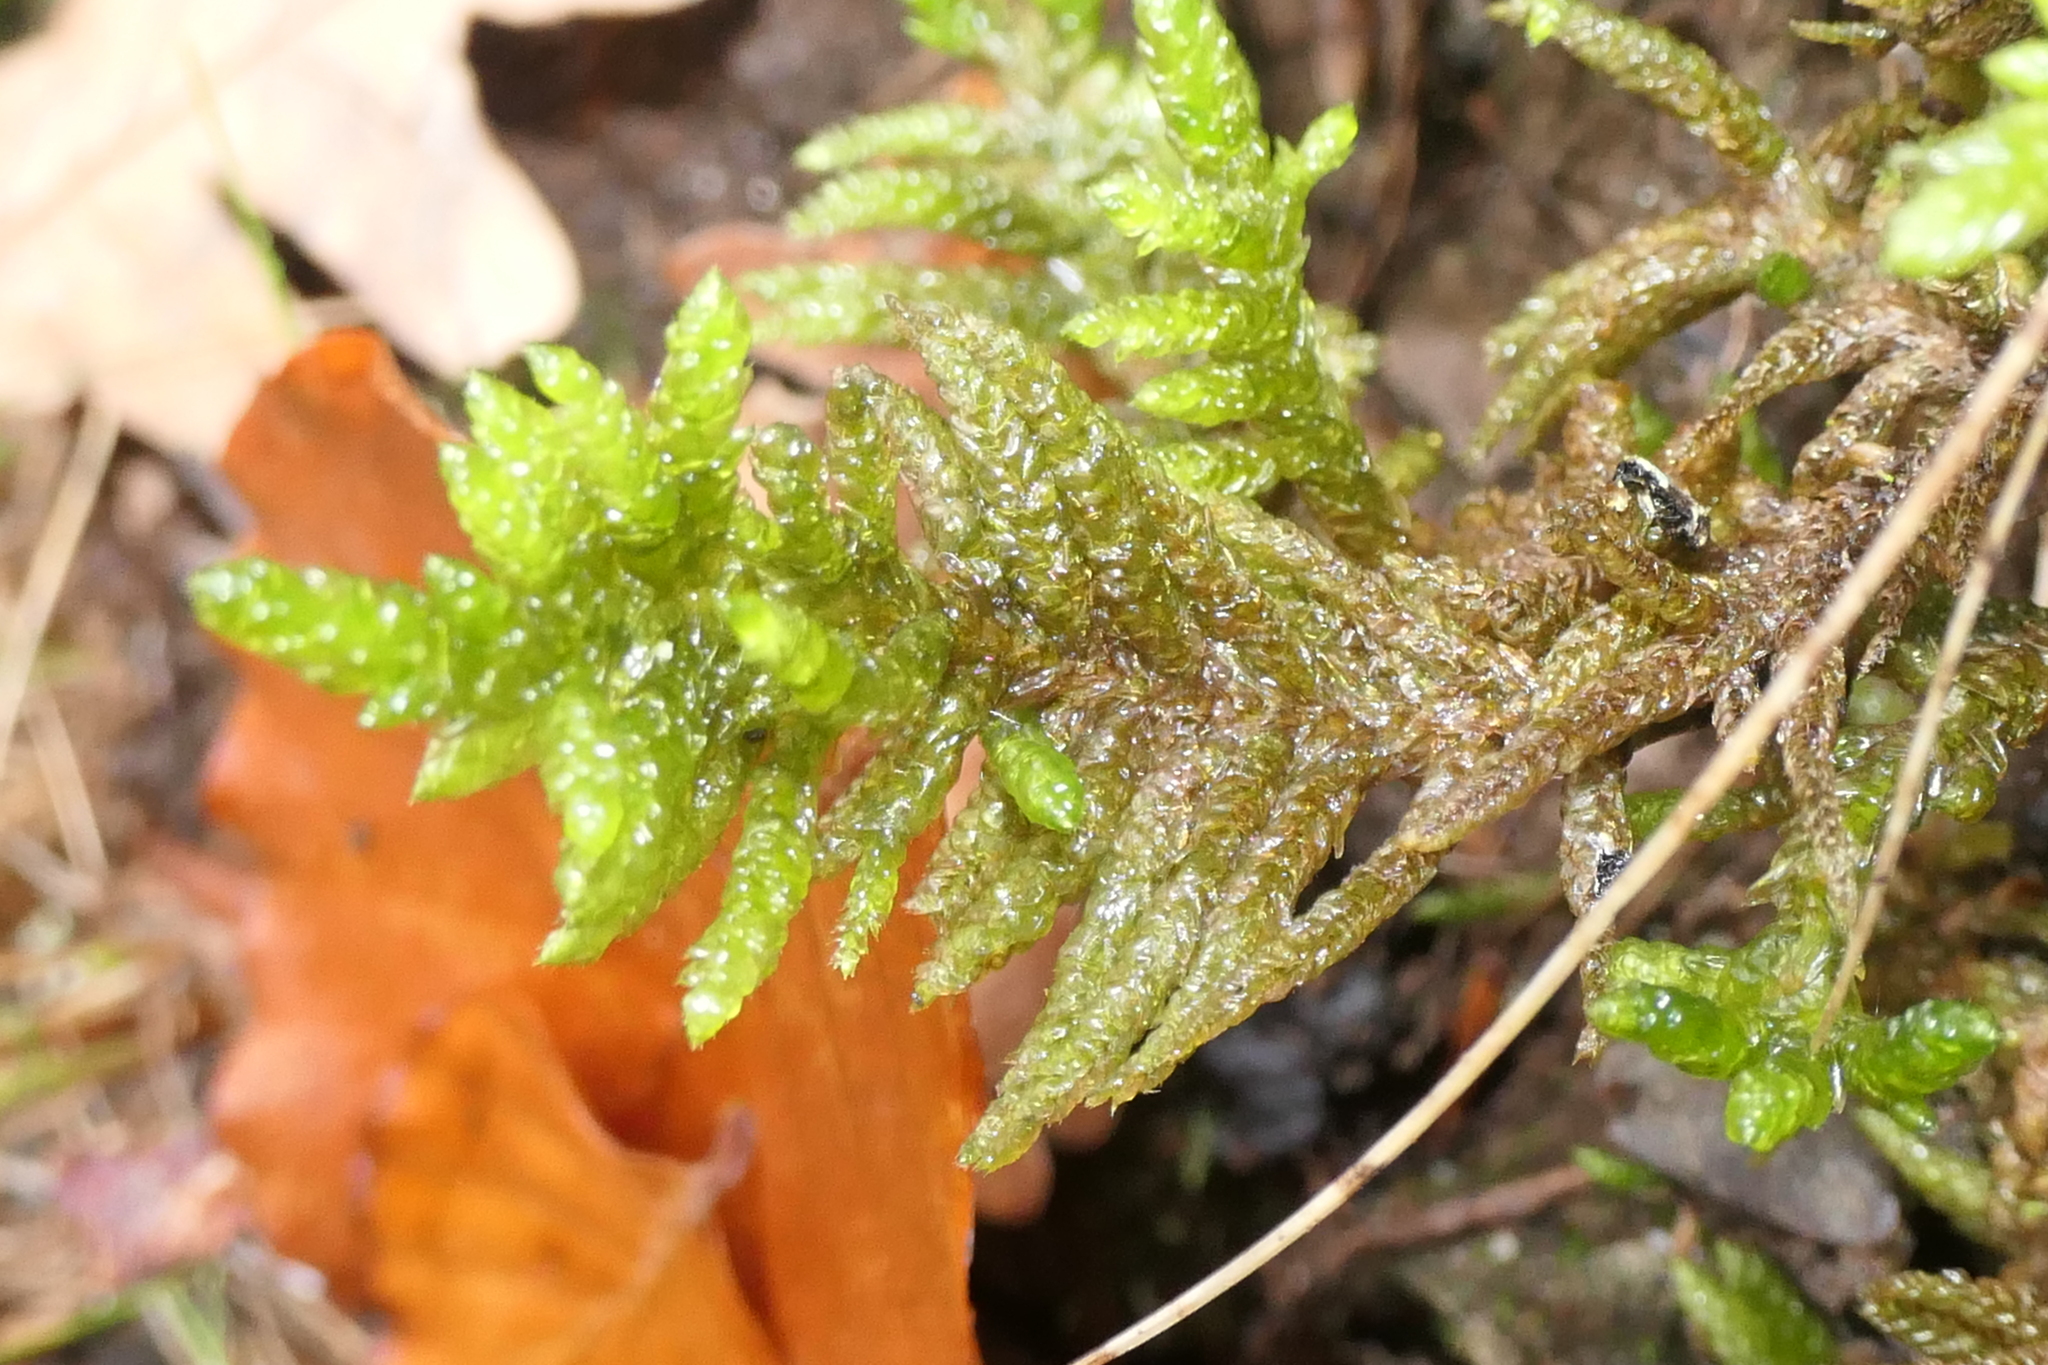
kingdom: Plantae
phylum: Bryophyta
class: Bryopsida
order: Hypnales
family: Brachytheciaceae
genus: Pseudoscleropodium
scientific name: Pseudoscleropodium purum
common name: Neat feather-moss
